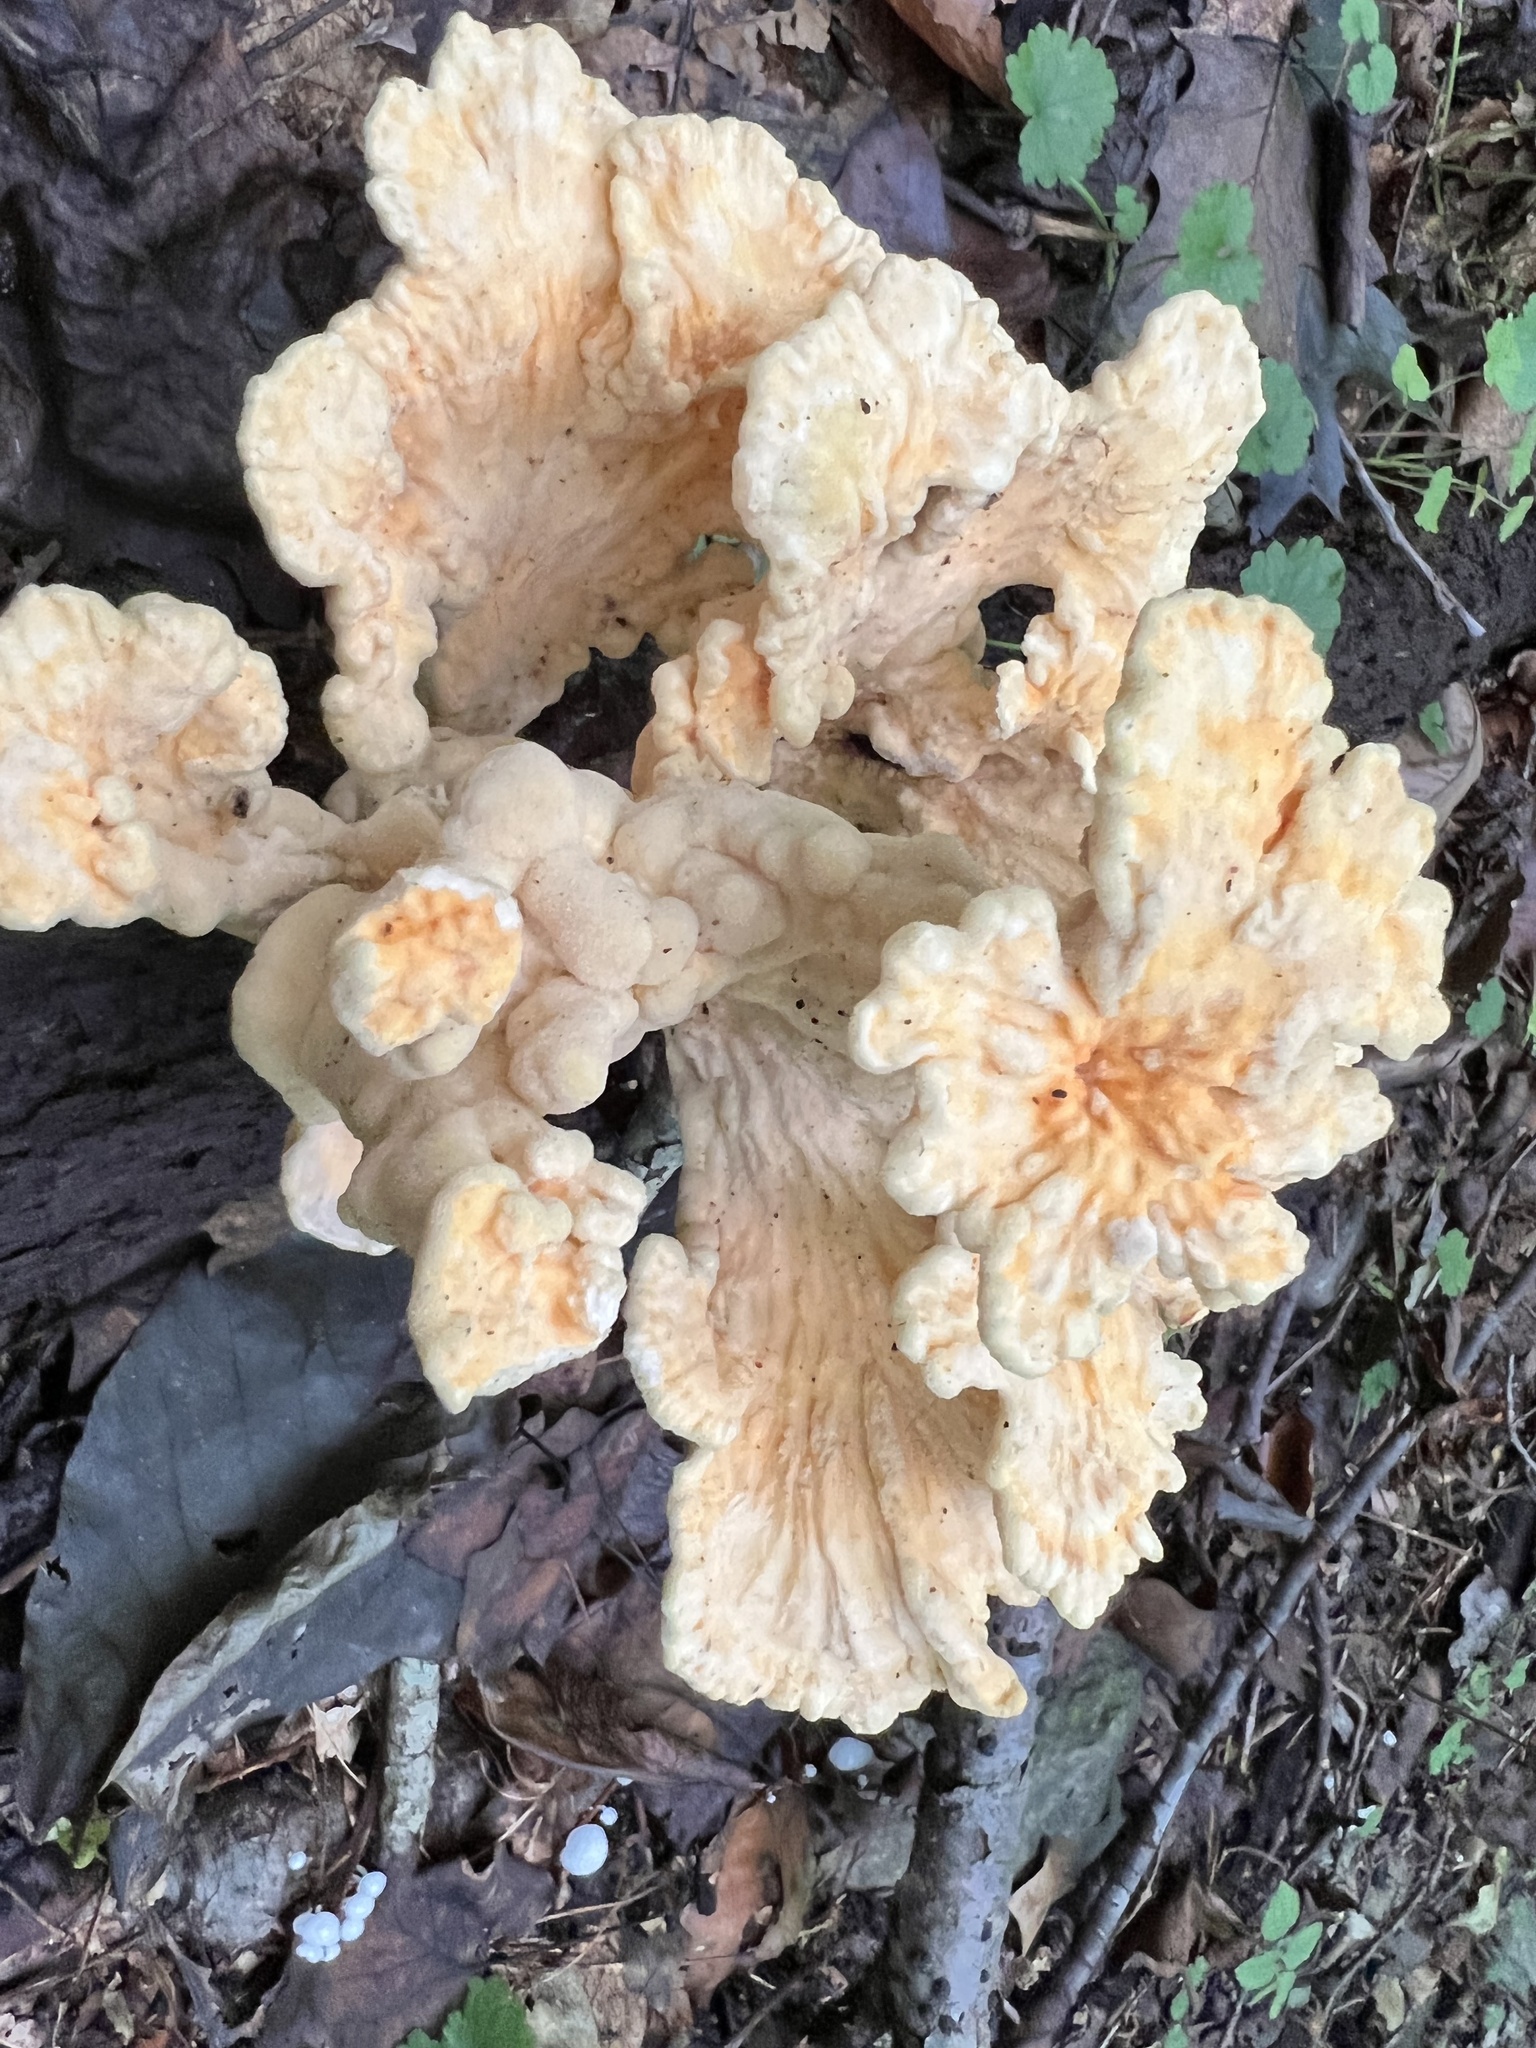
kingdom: Fungi
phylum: Basidiomycota
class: Agaricomycetes
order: Polyporales
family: Laetiporaceae
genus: Laetiporus
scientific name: Laetiporus sulphureus
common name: Chicken of the woods
